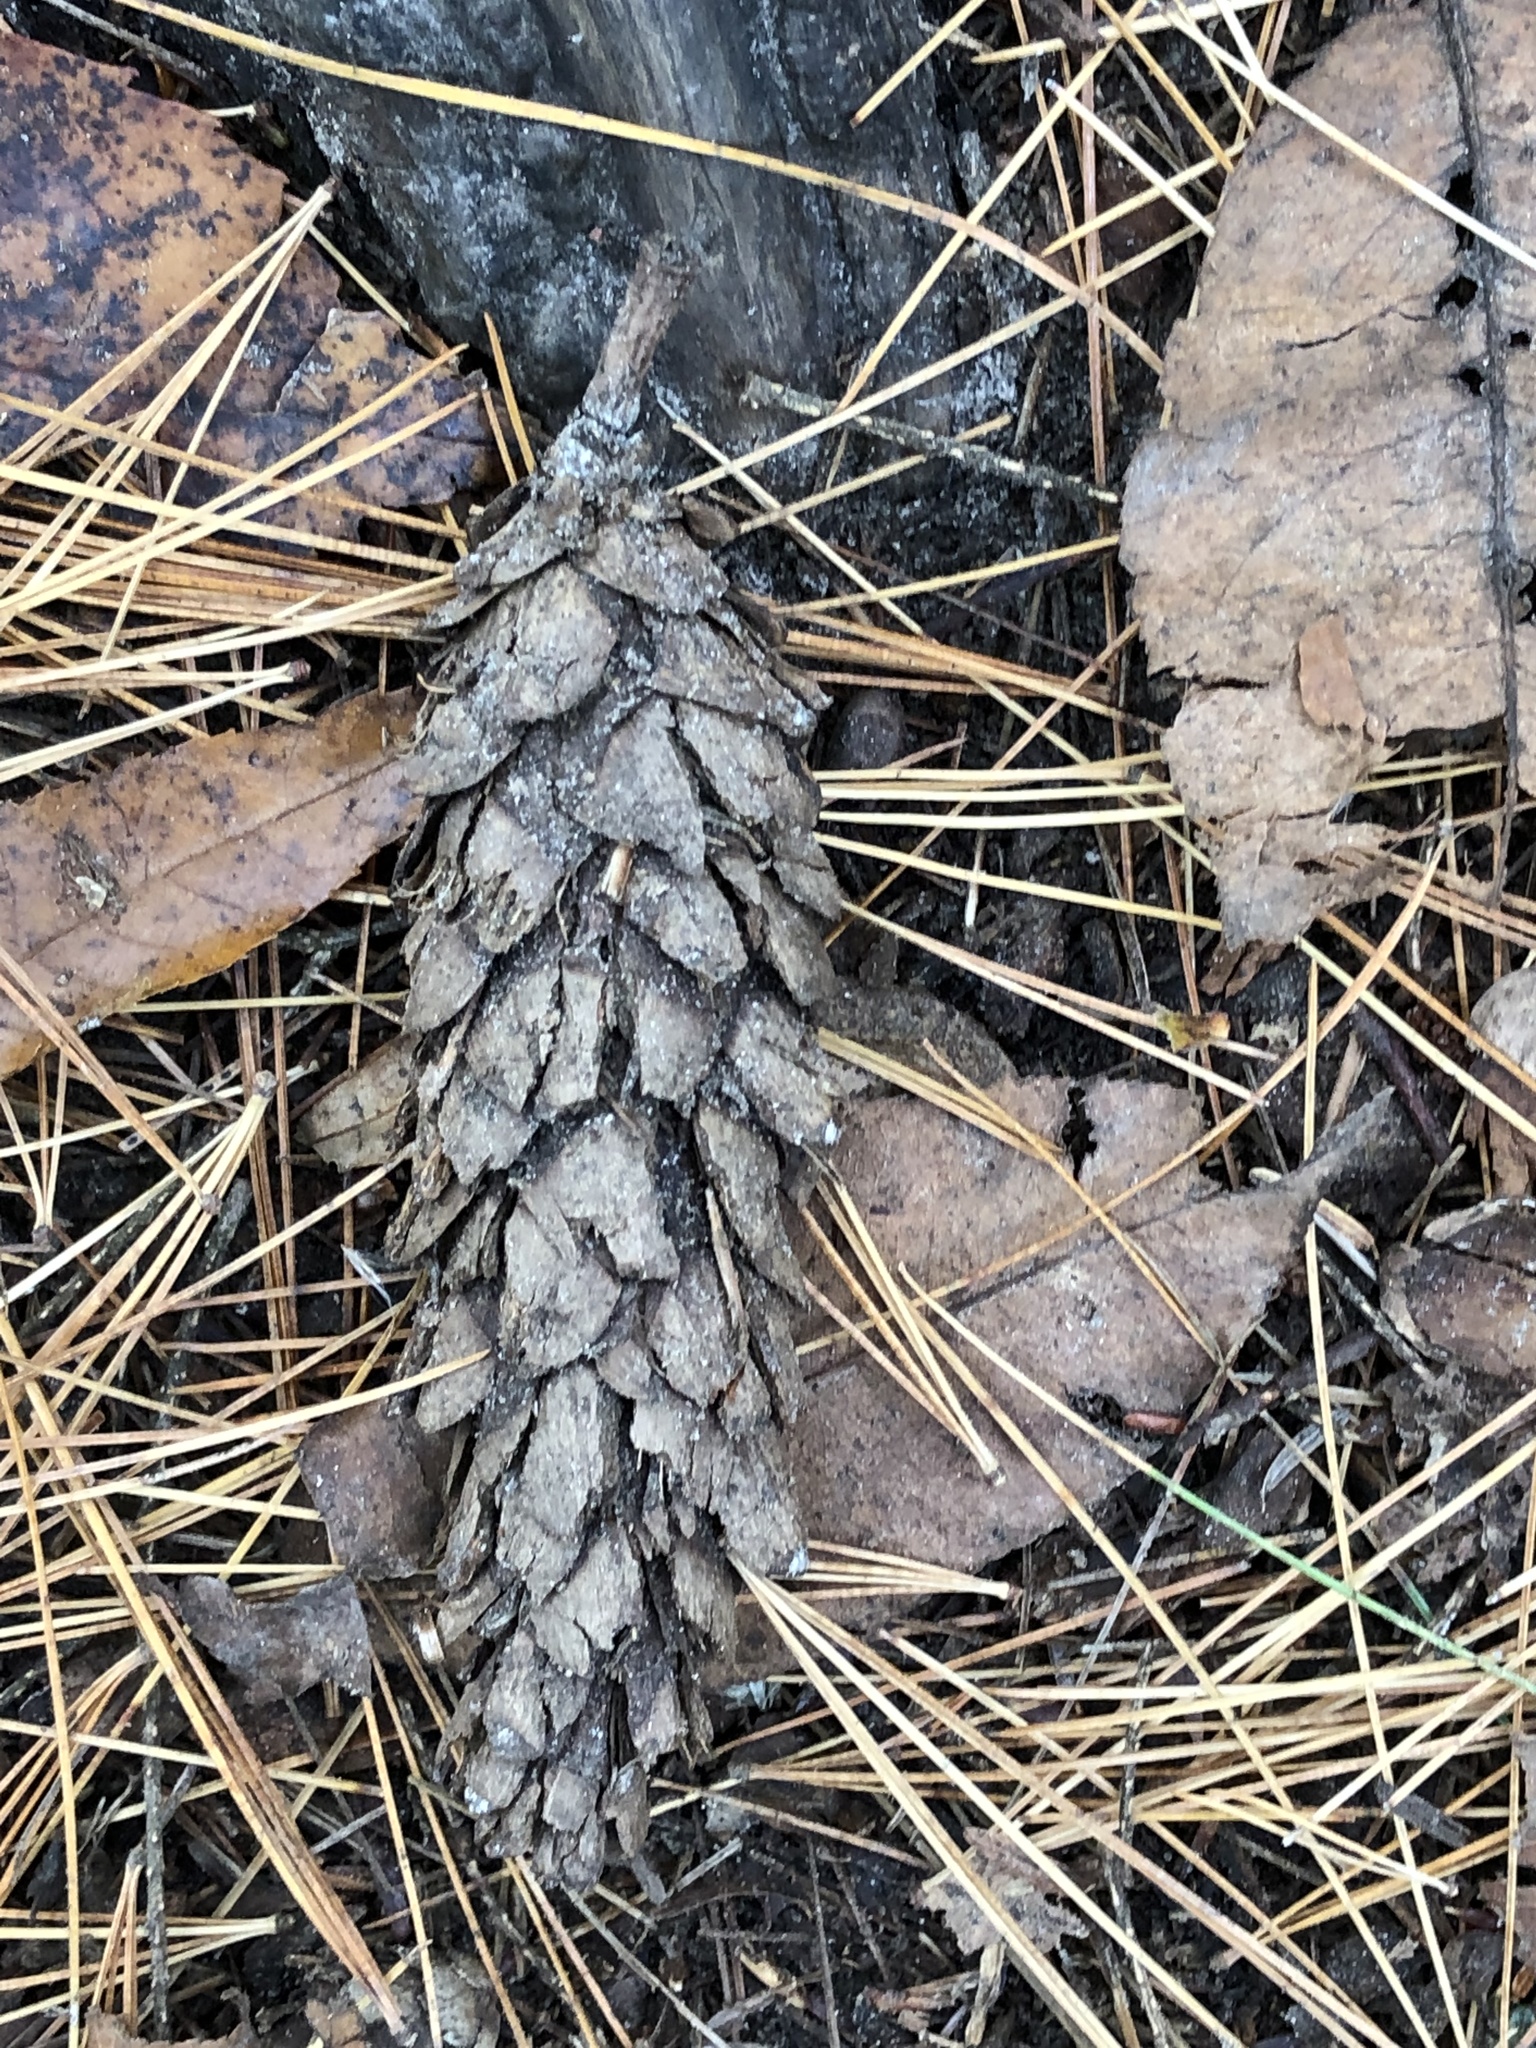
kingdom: Plantae
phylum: Tracheophyta
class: Pinopsida
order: Pinales
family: Pinaceae
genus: Pinus
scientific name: Pinus strobus
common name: Weymouth pine
